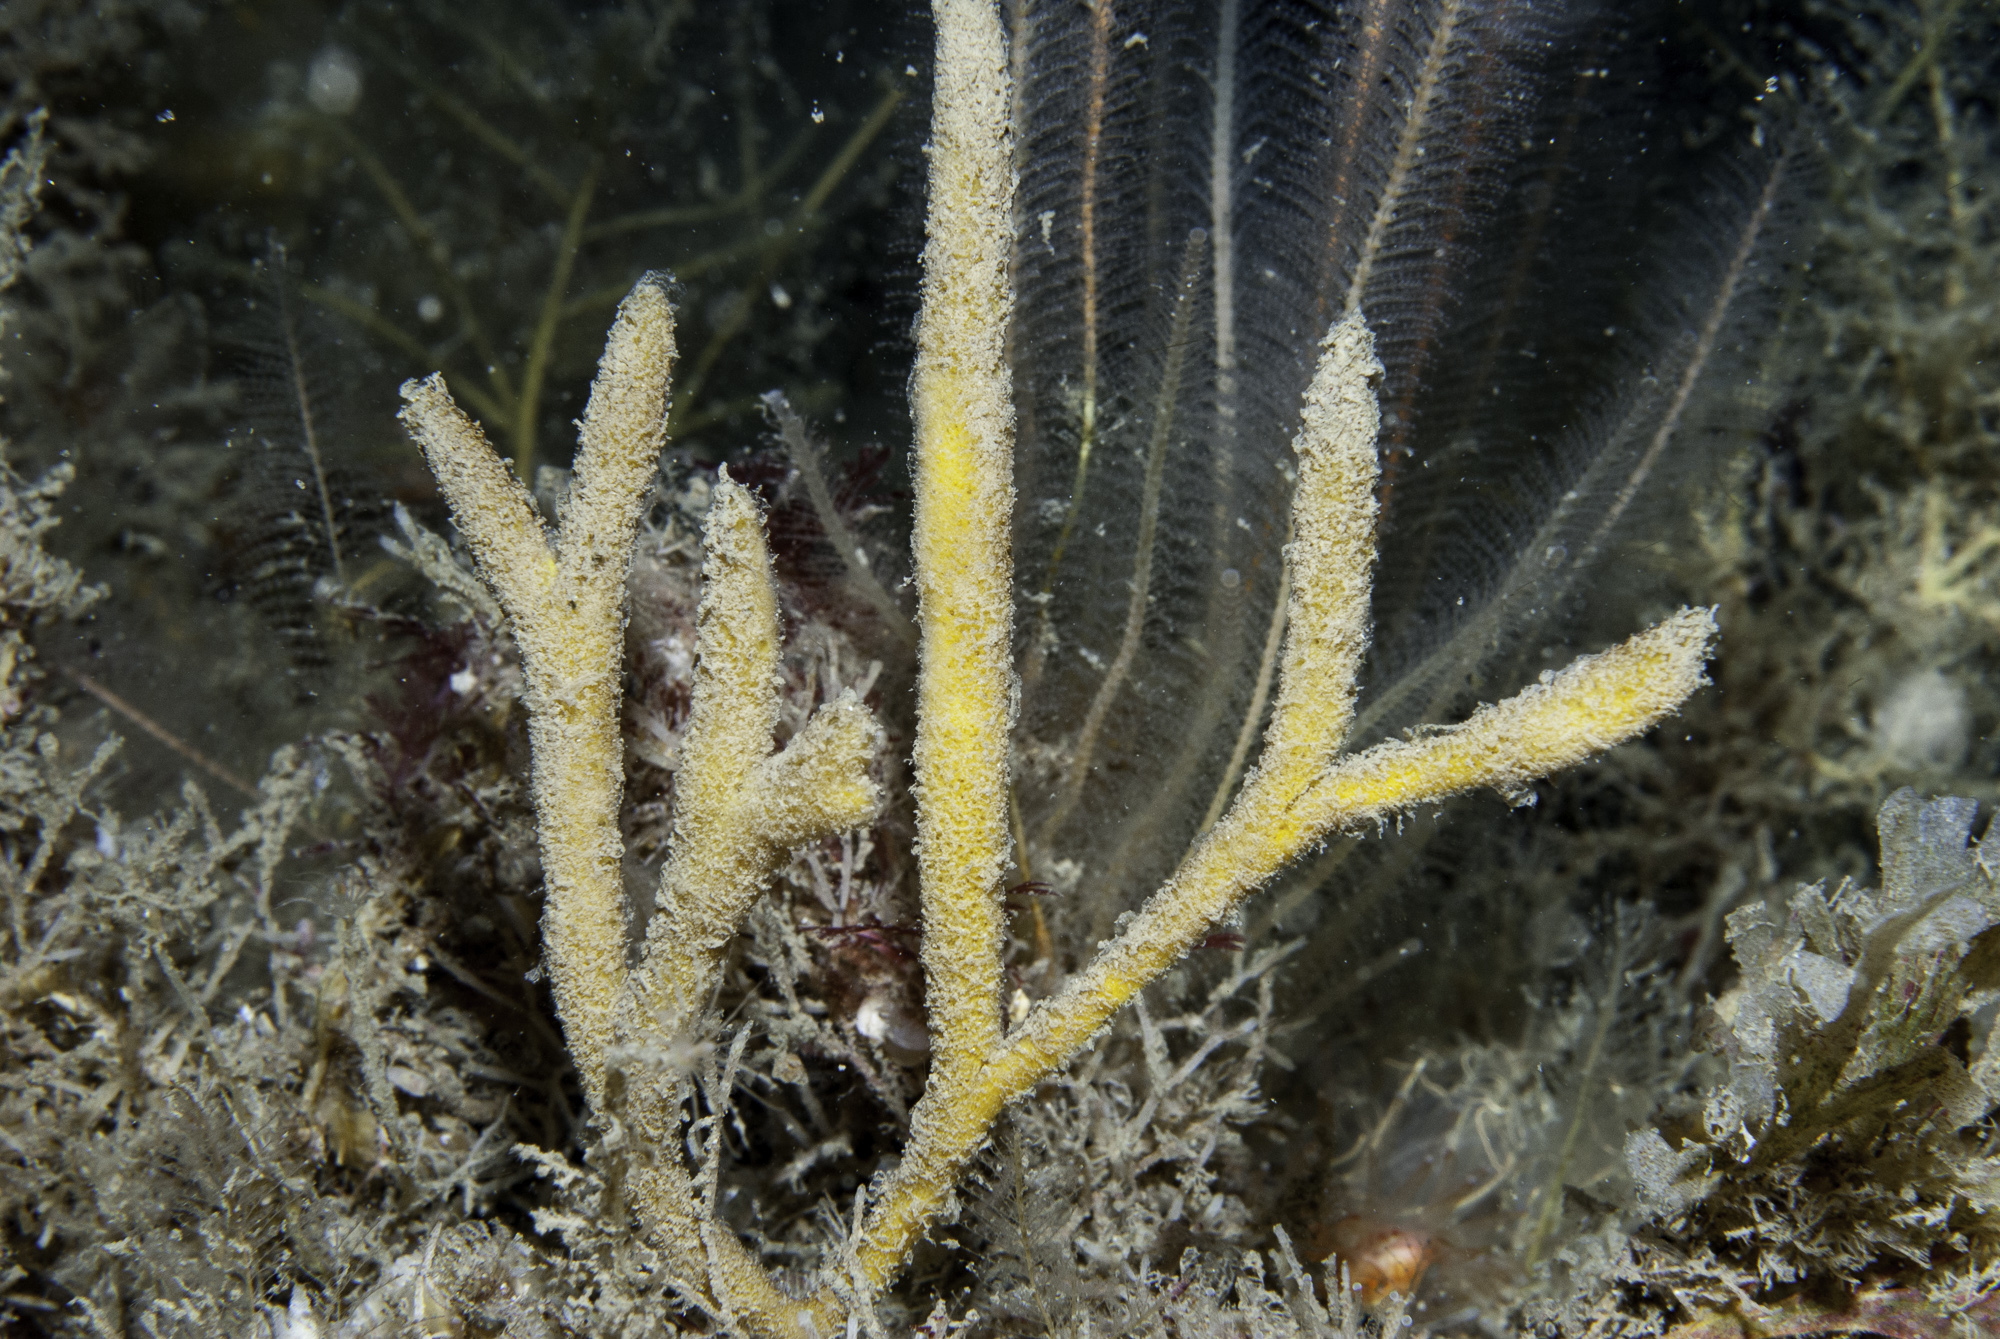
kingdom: Animalia
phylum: Porifera
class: Demospongiae
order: Axinellida
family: Raspailiidae
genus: Raspailia
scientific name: Raspailia hispida
